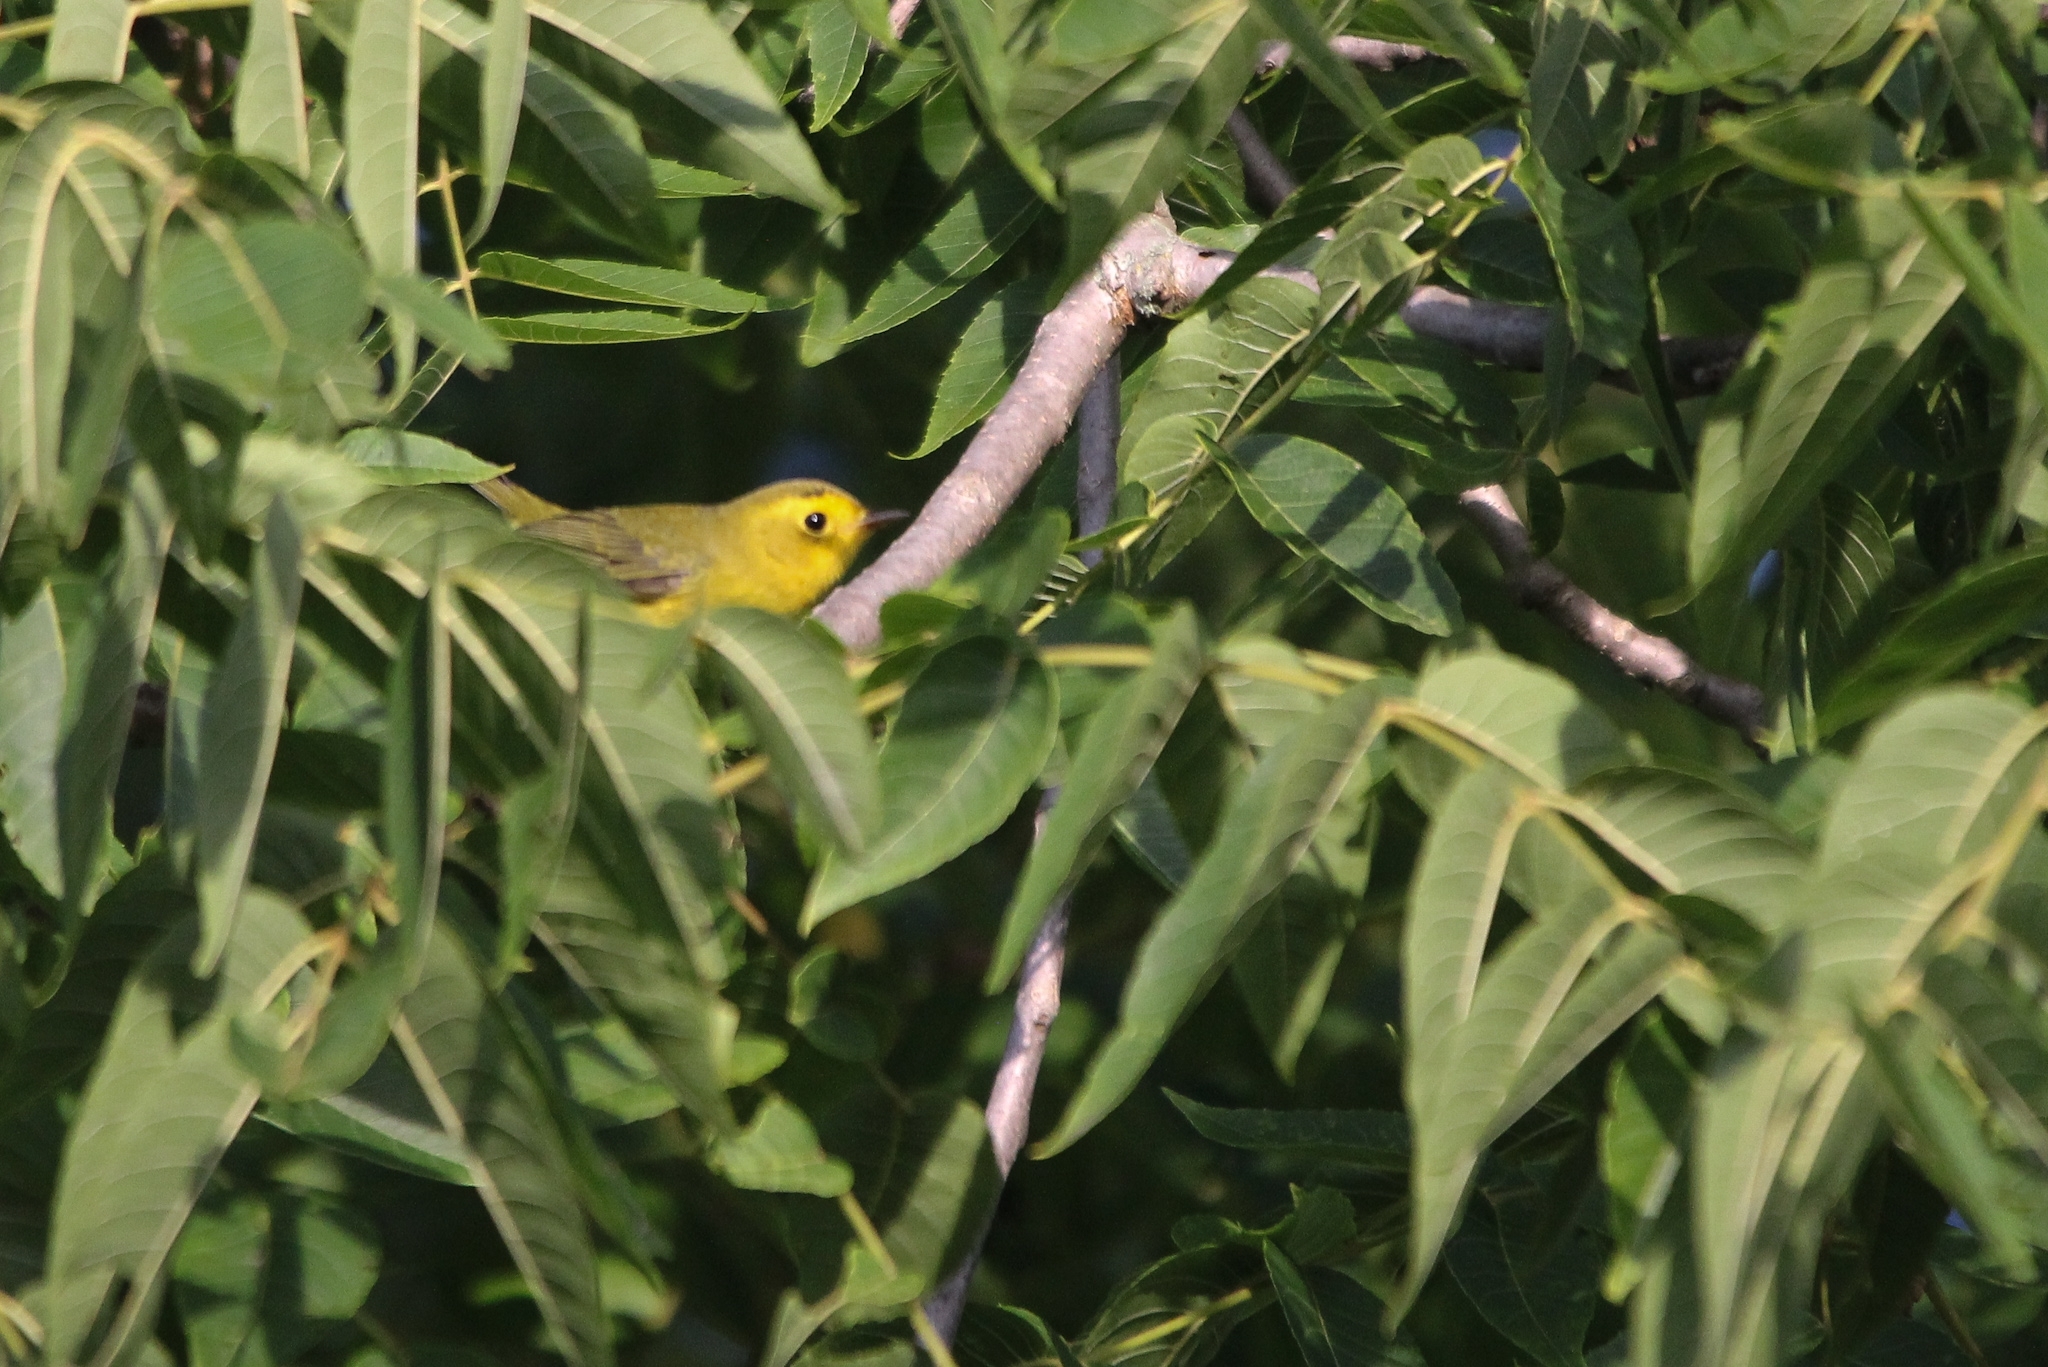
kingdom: Animalia
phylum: Chordata
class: Aves
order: Passeriformes
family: Parulidae
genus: Cardellina
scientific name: Cardellina pusilla
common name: Wilson's warbler
